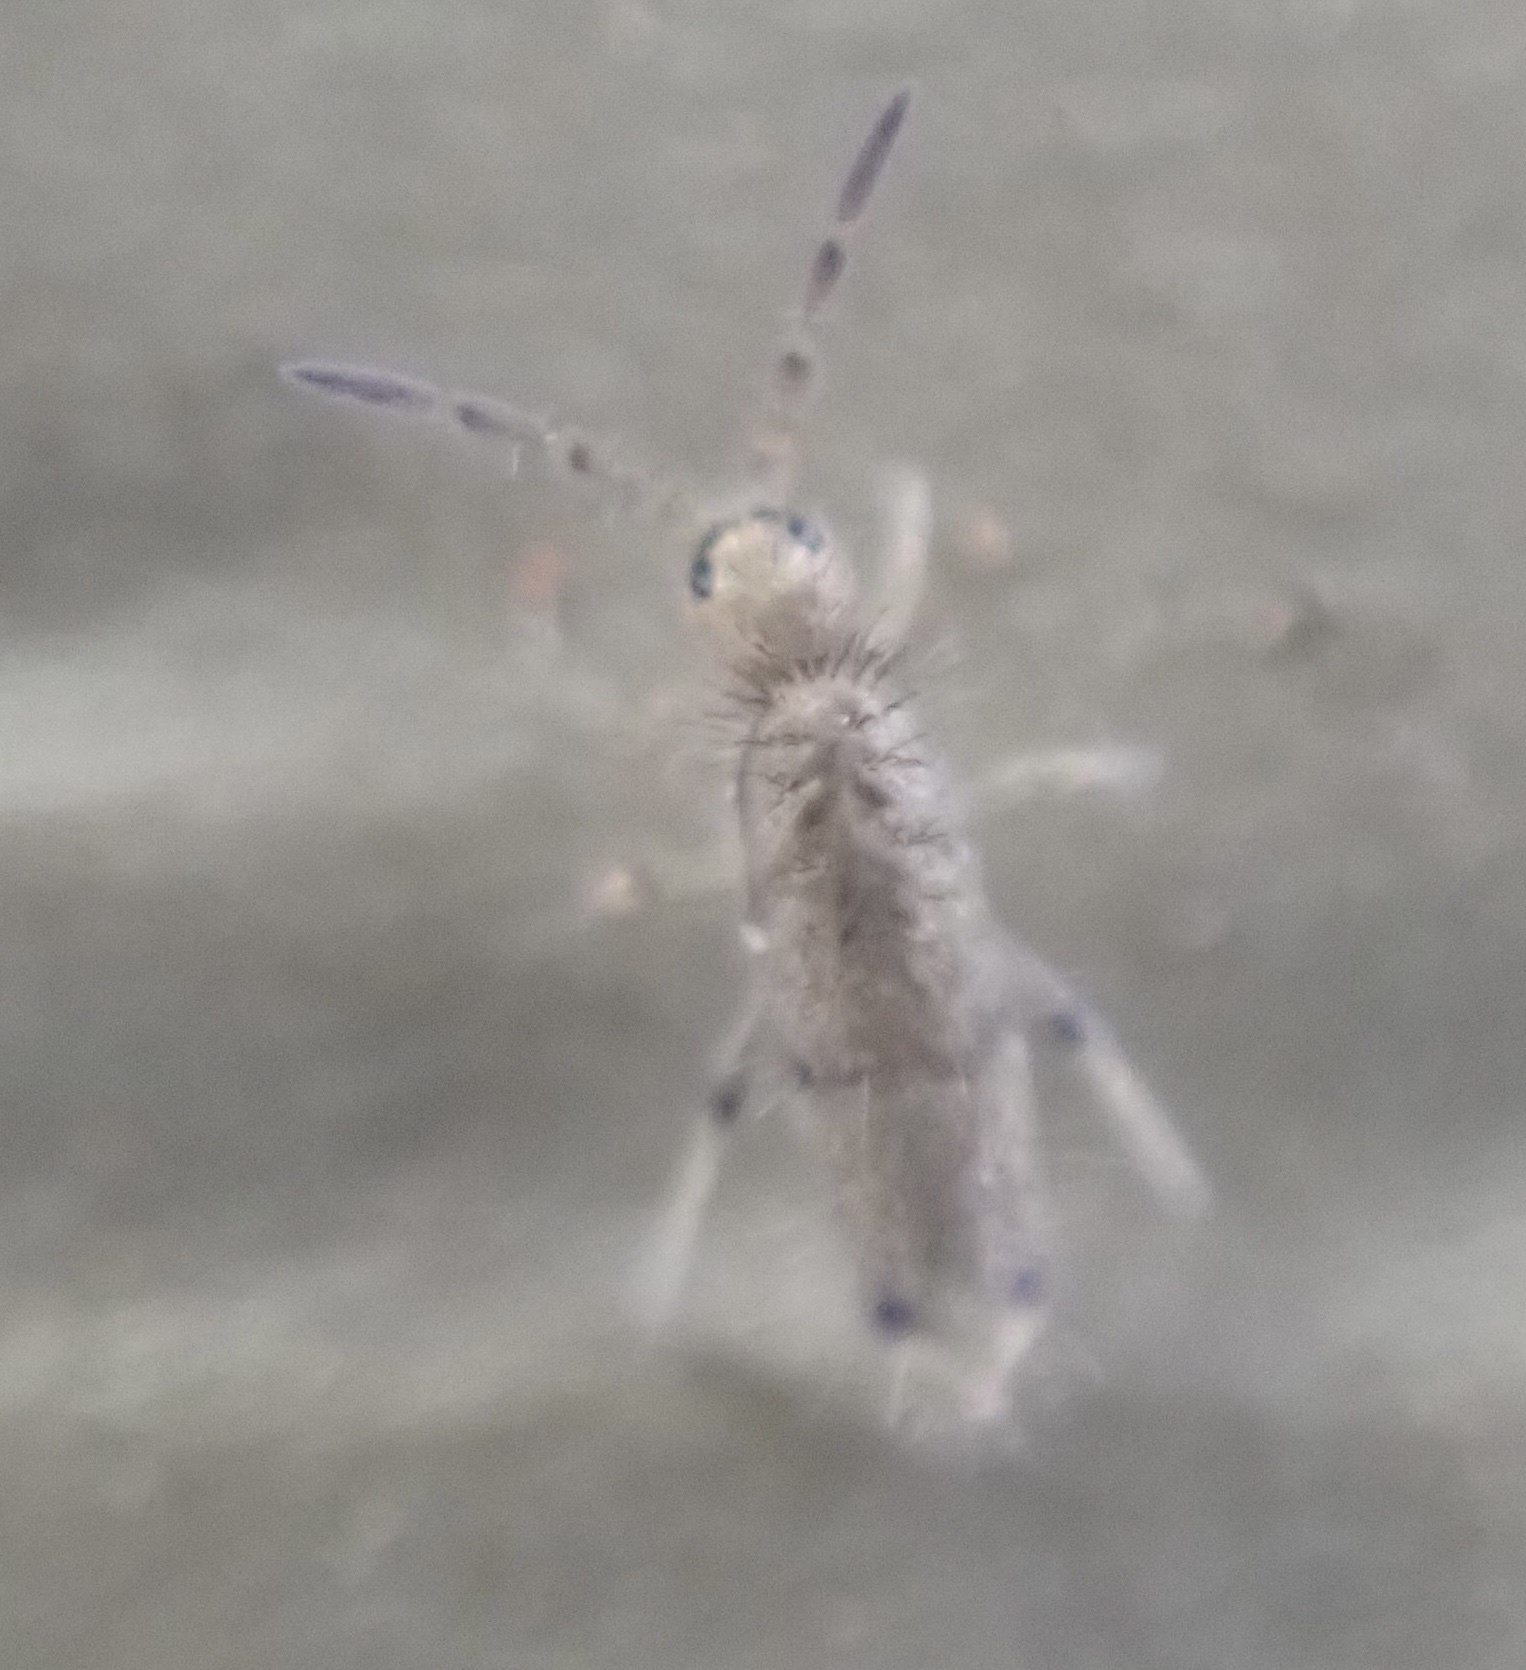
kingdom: Animalia
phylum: Arthropoda
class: Collembola
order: Entomobryomorpha
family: Entomobryidae
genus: Willowsia
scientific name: Willowsia nigromaculata
